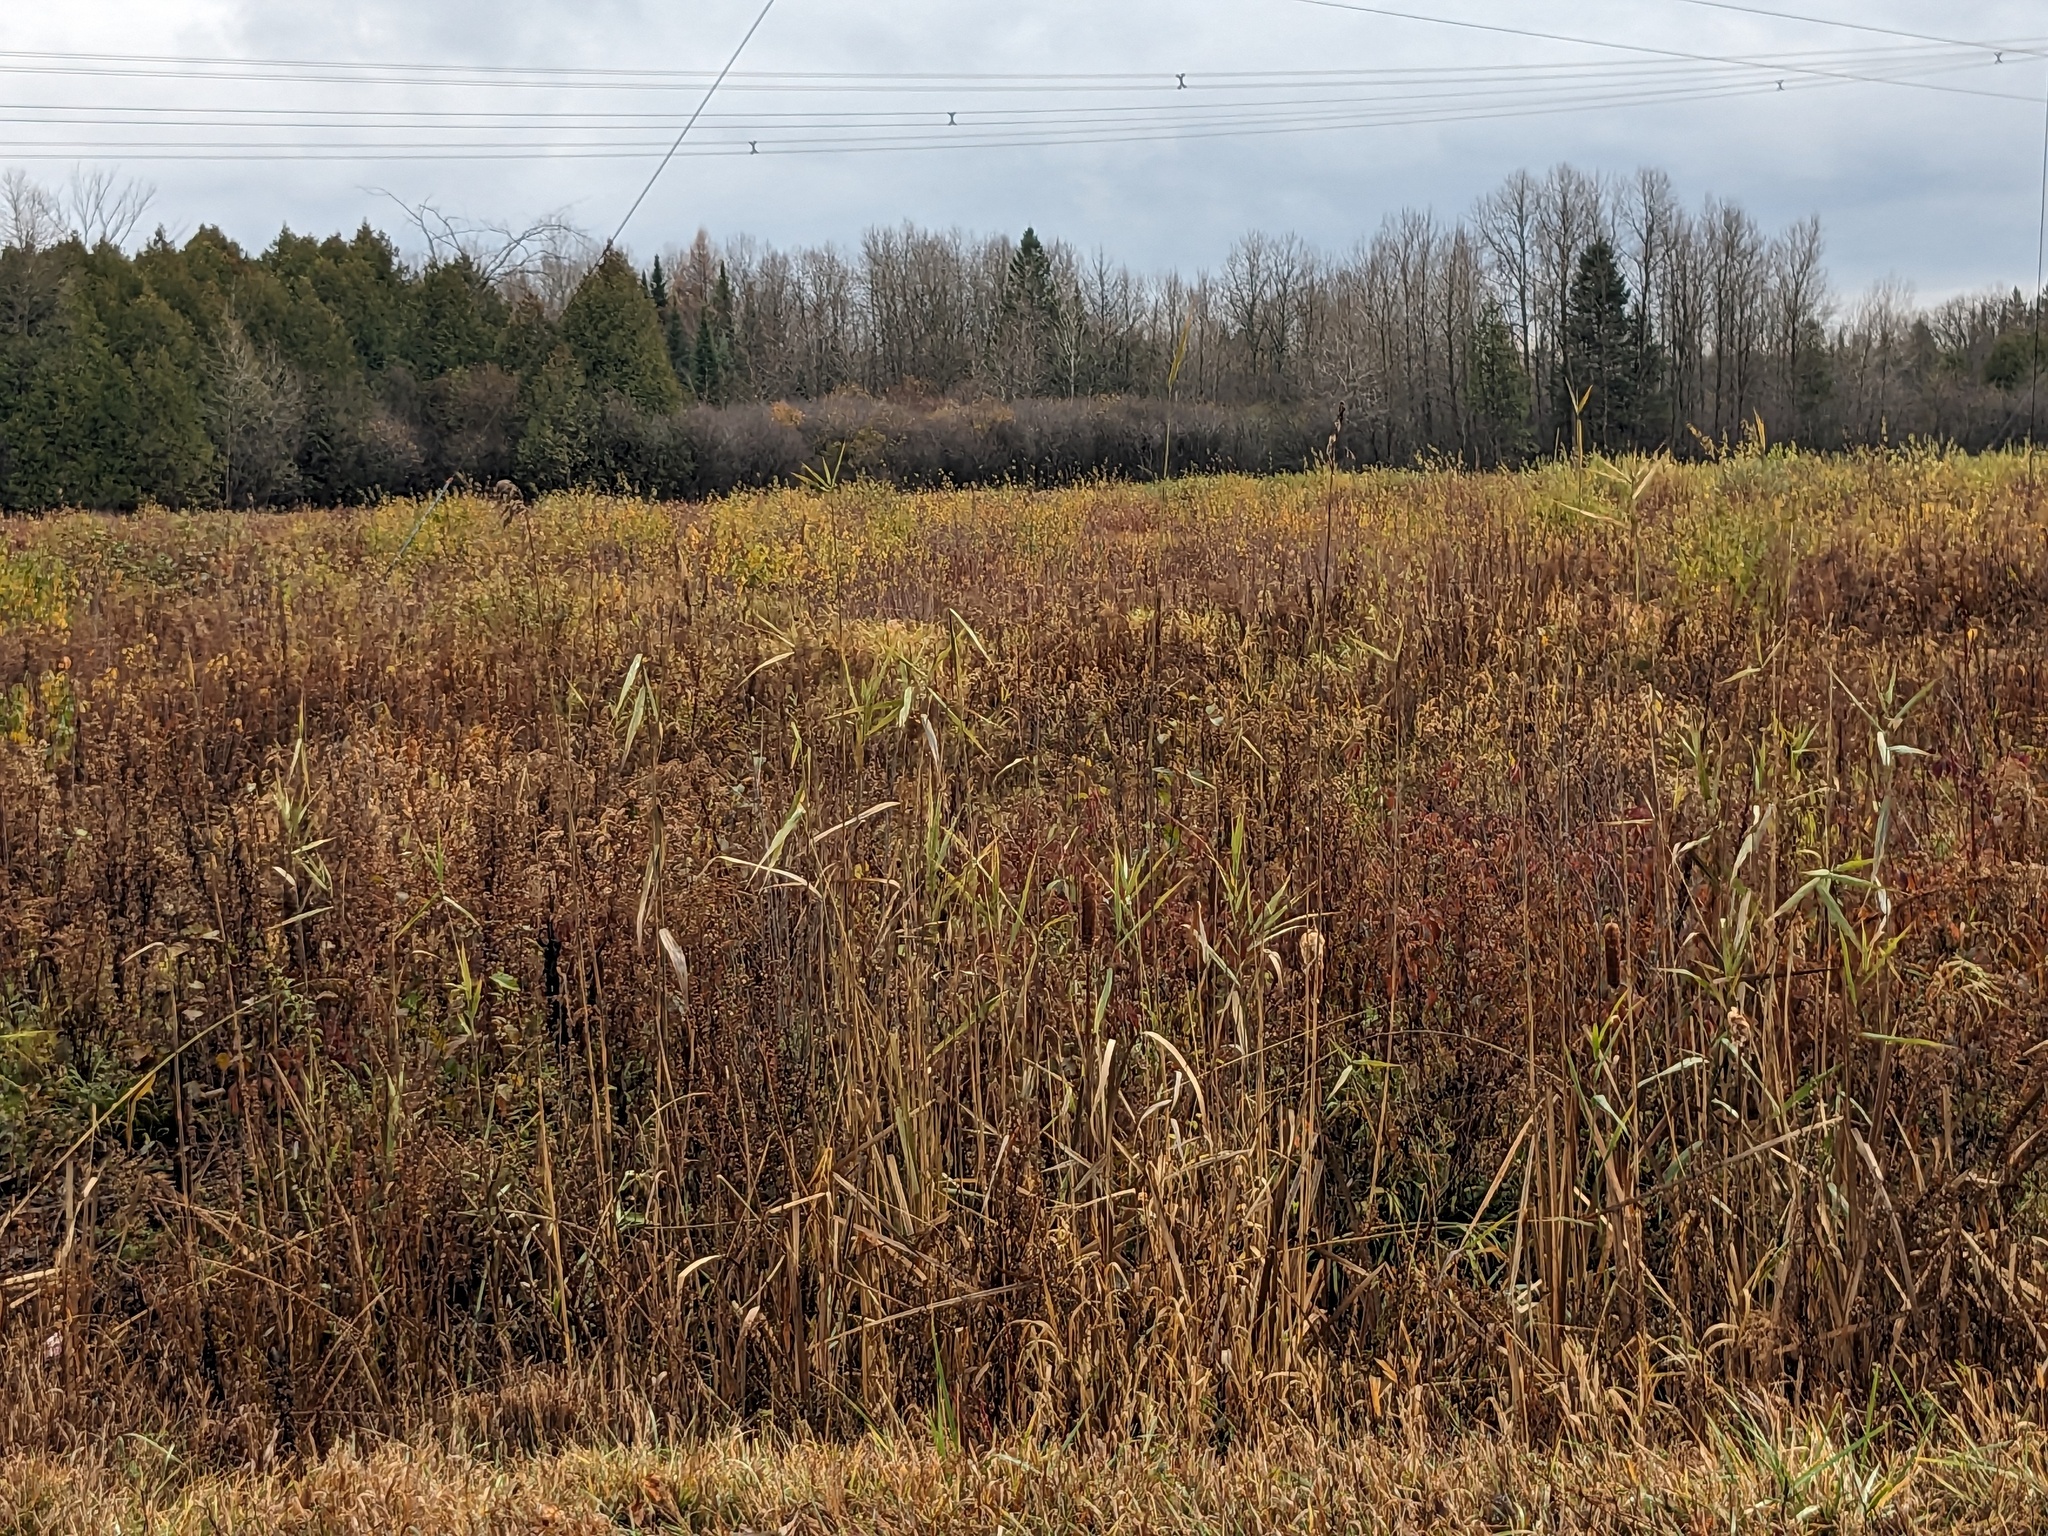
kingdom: Plantae
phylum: Tracheophyta
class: Liliopsida
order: Poales
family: Poaceae
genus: Phragmites
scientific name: Phragmites australis
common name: Common reed
